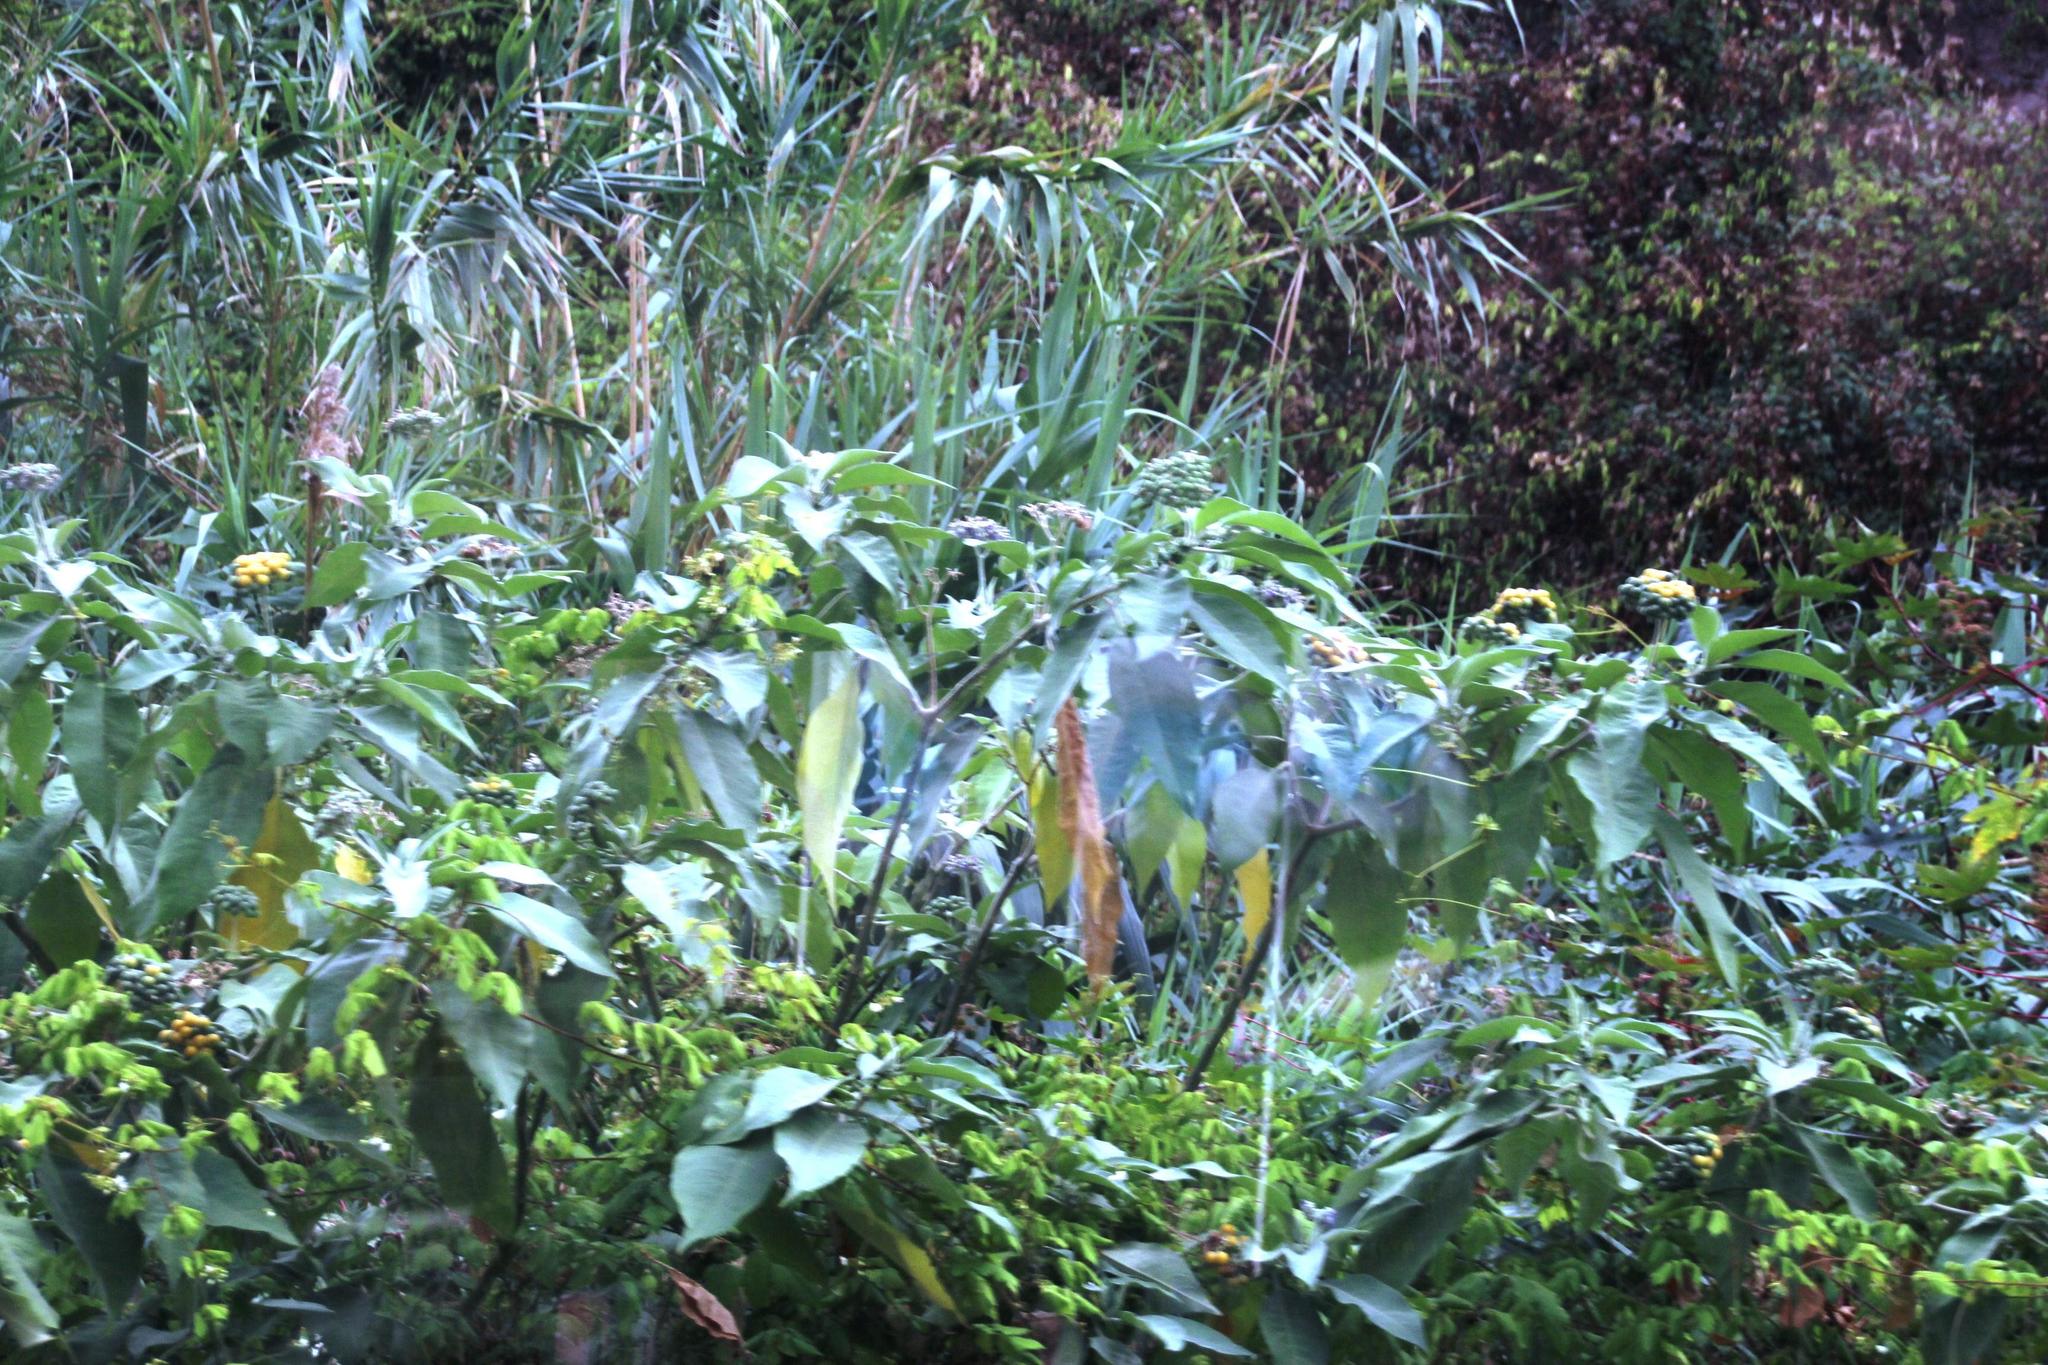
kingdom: Plantae
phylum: Tracheophyta
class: Liliopsida
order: Poales
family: Poaceae
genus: Arundo
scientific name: Arundo donax
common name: Giant reed
